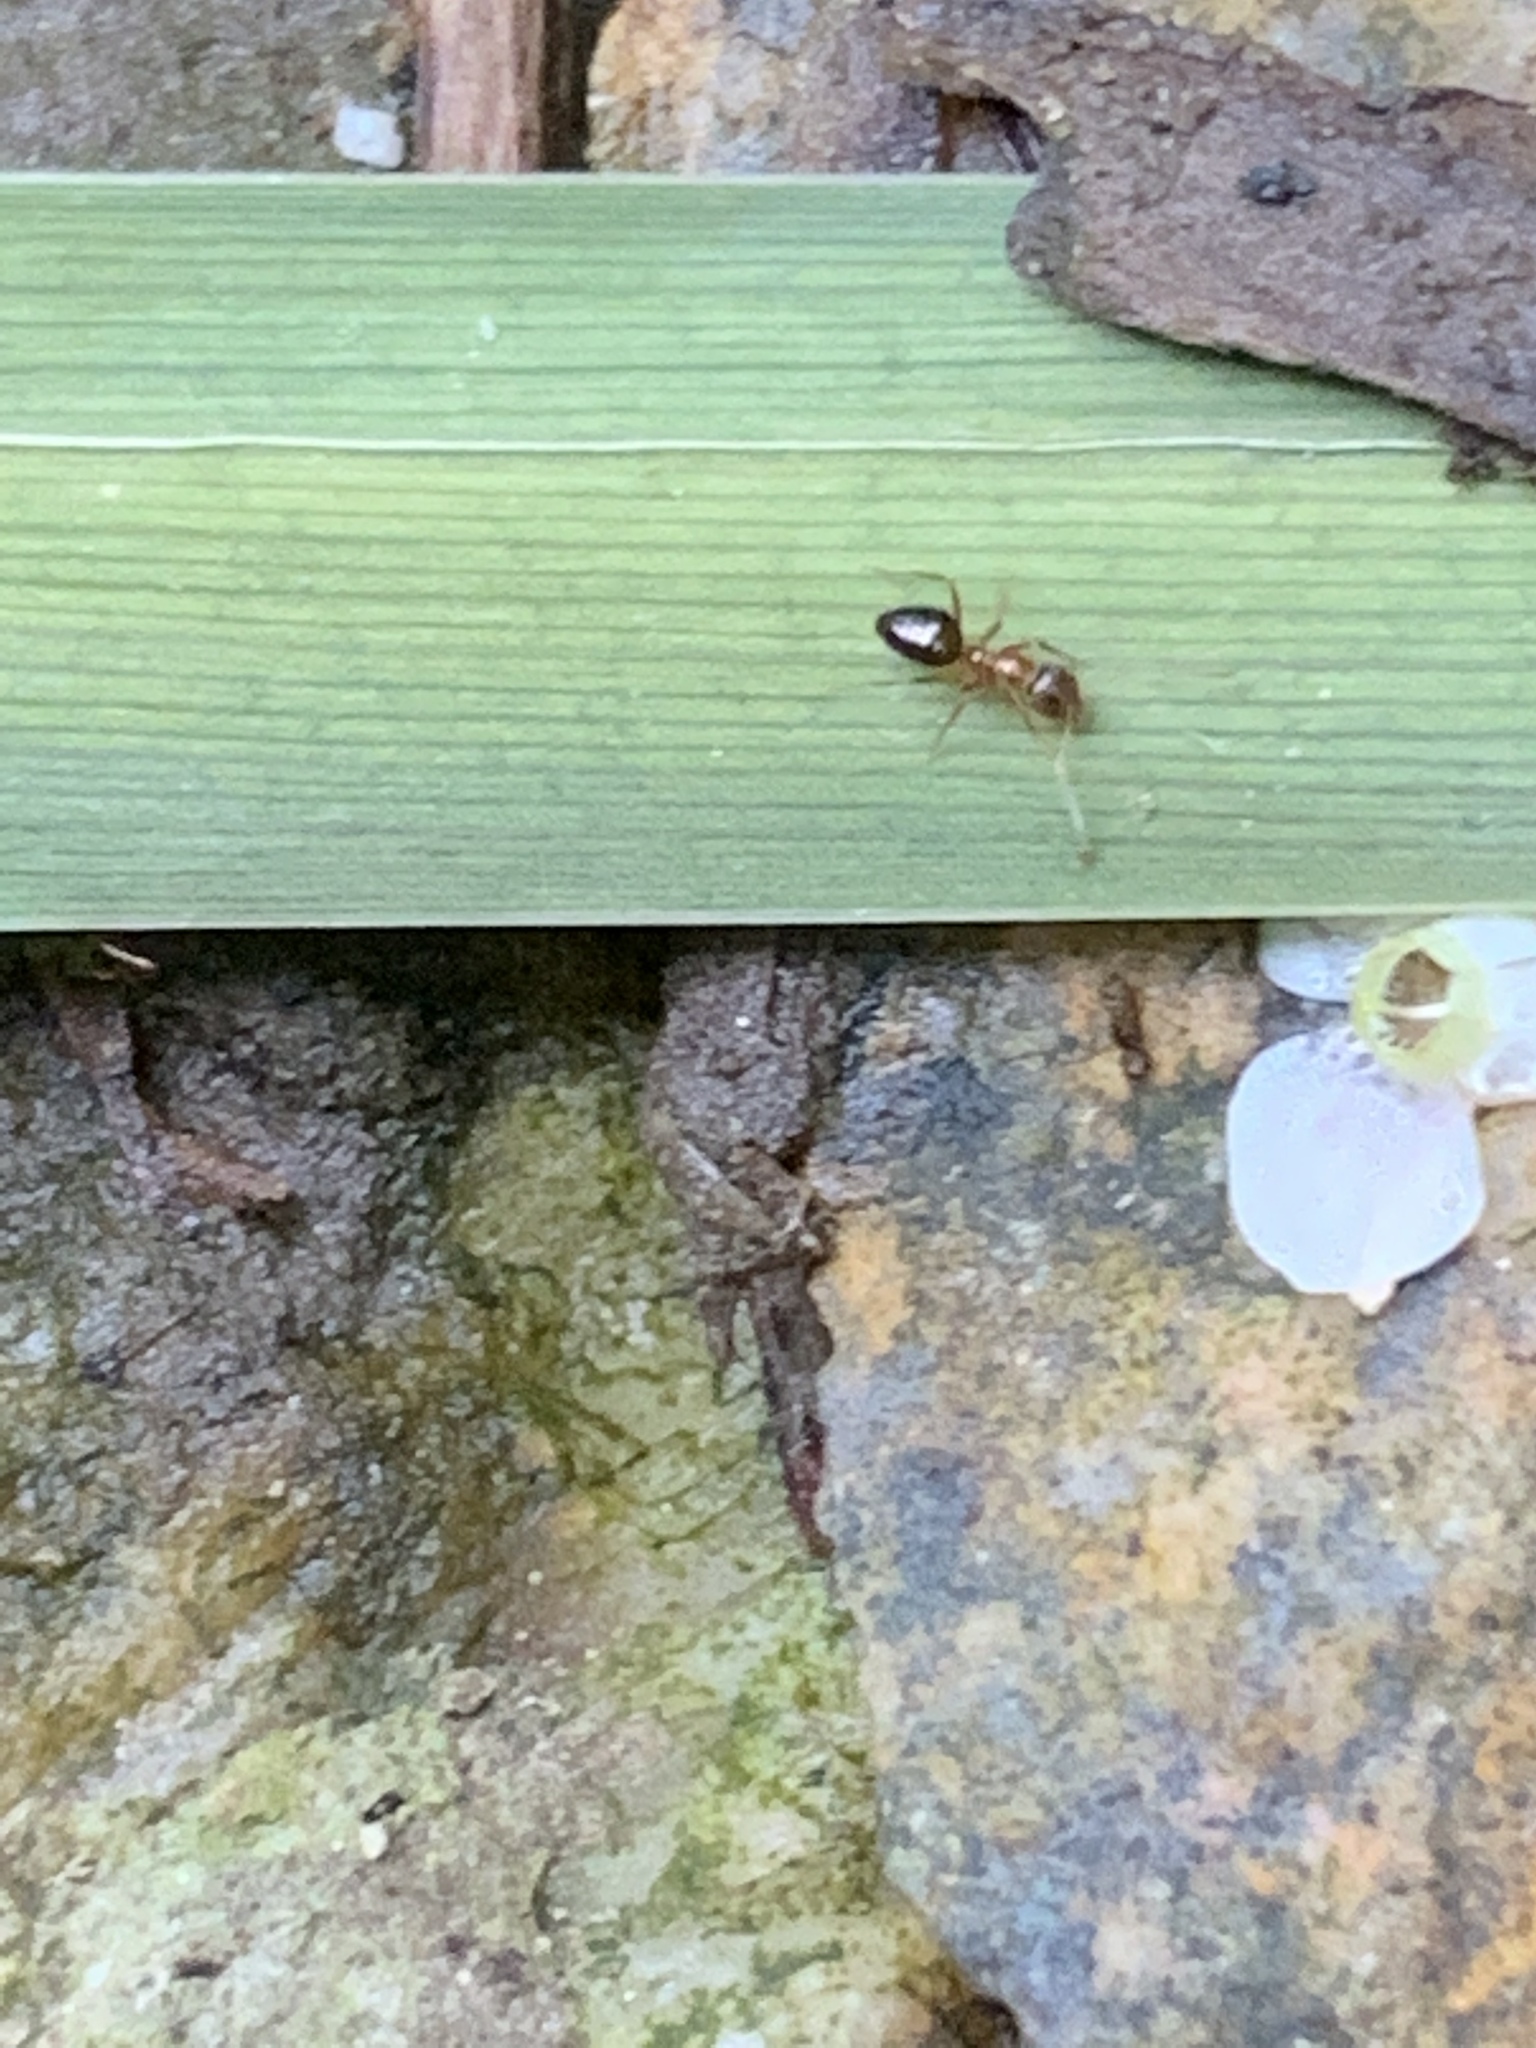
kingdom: Animalia
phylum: Arthropoda
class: Insecta
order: Hymenoptera
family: Formicidae
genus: Paratrechina
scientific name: Paratrechina flavipes
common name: Eastern asian formicine ant
